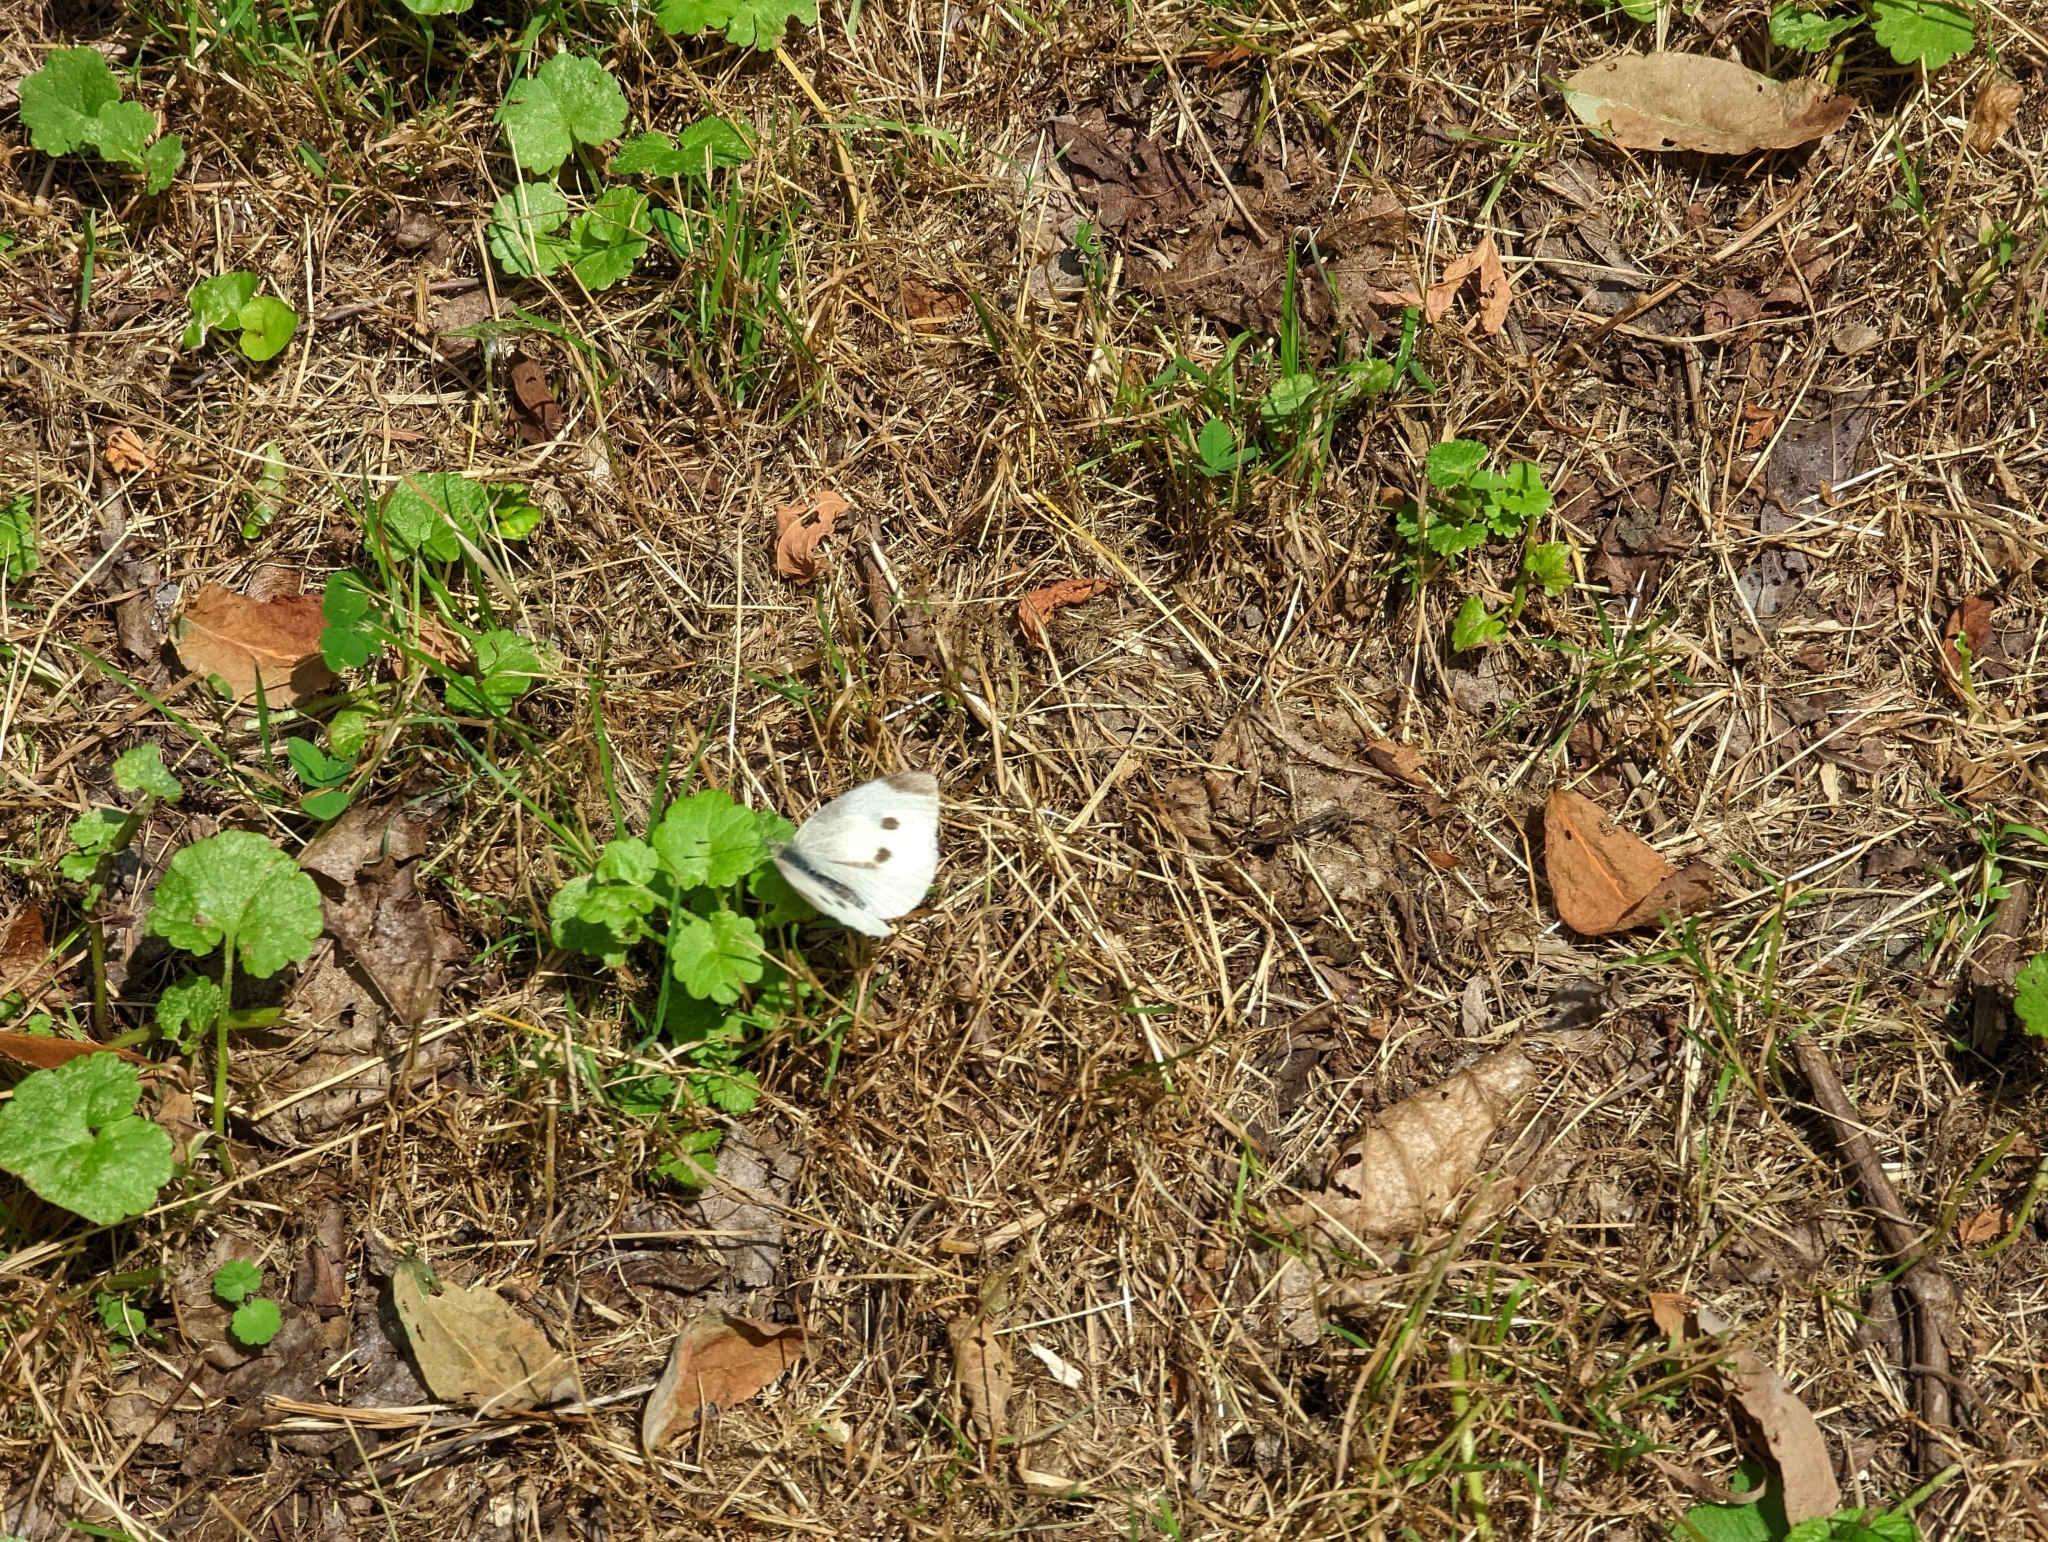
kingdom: Animalia
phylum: Arthropoda
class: Insecta
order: Lepidoptera
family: Pieridae
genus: Pieris
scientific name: Pieris rapae
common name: Small white
